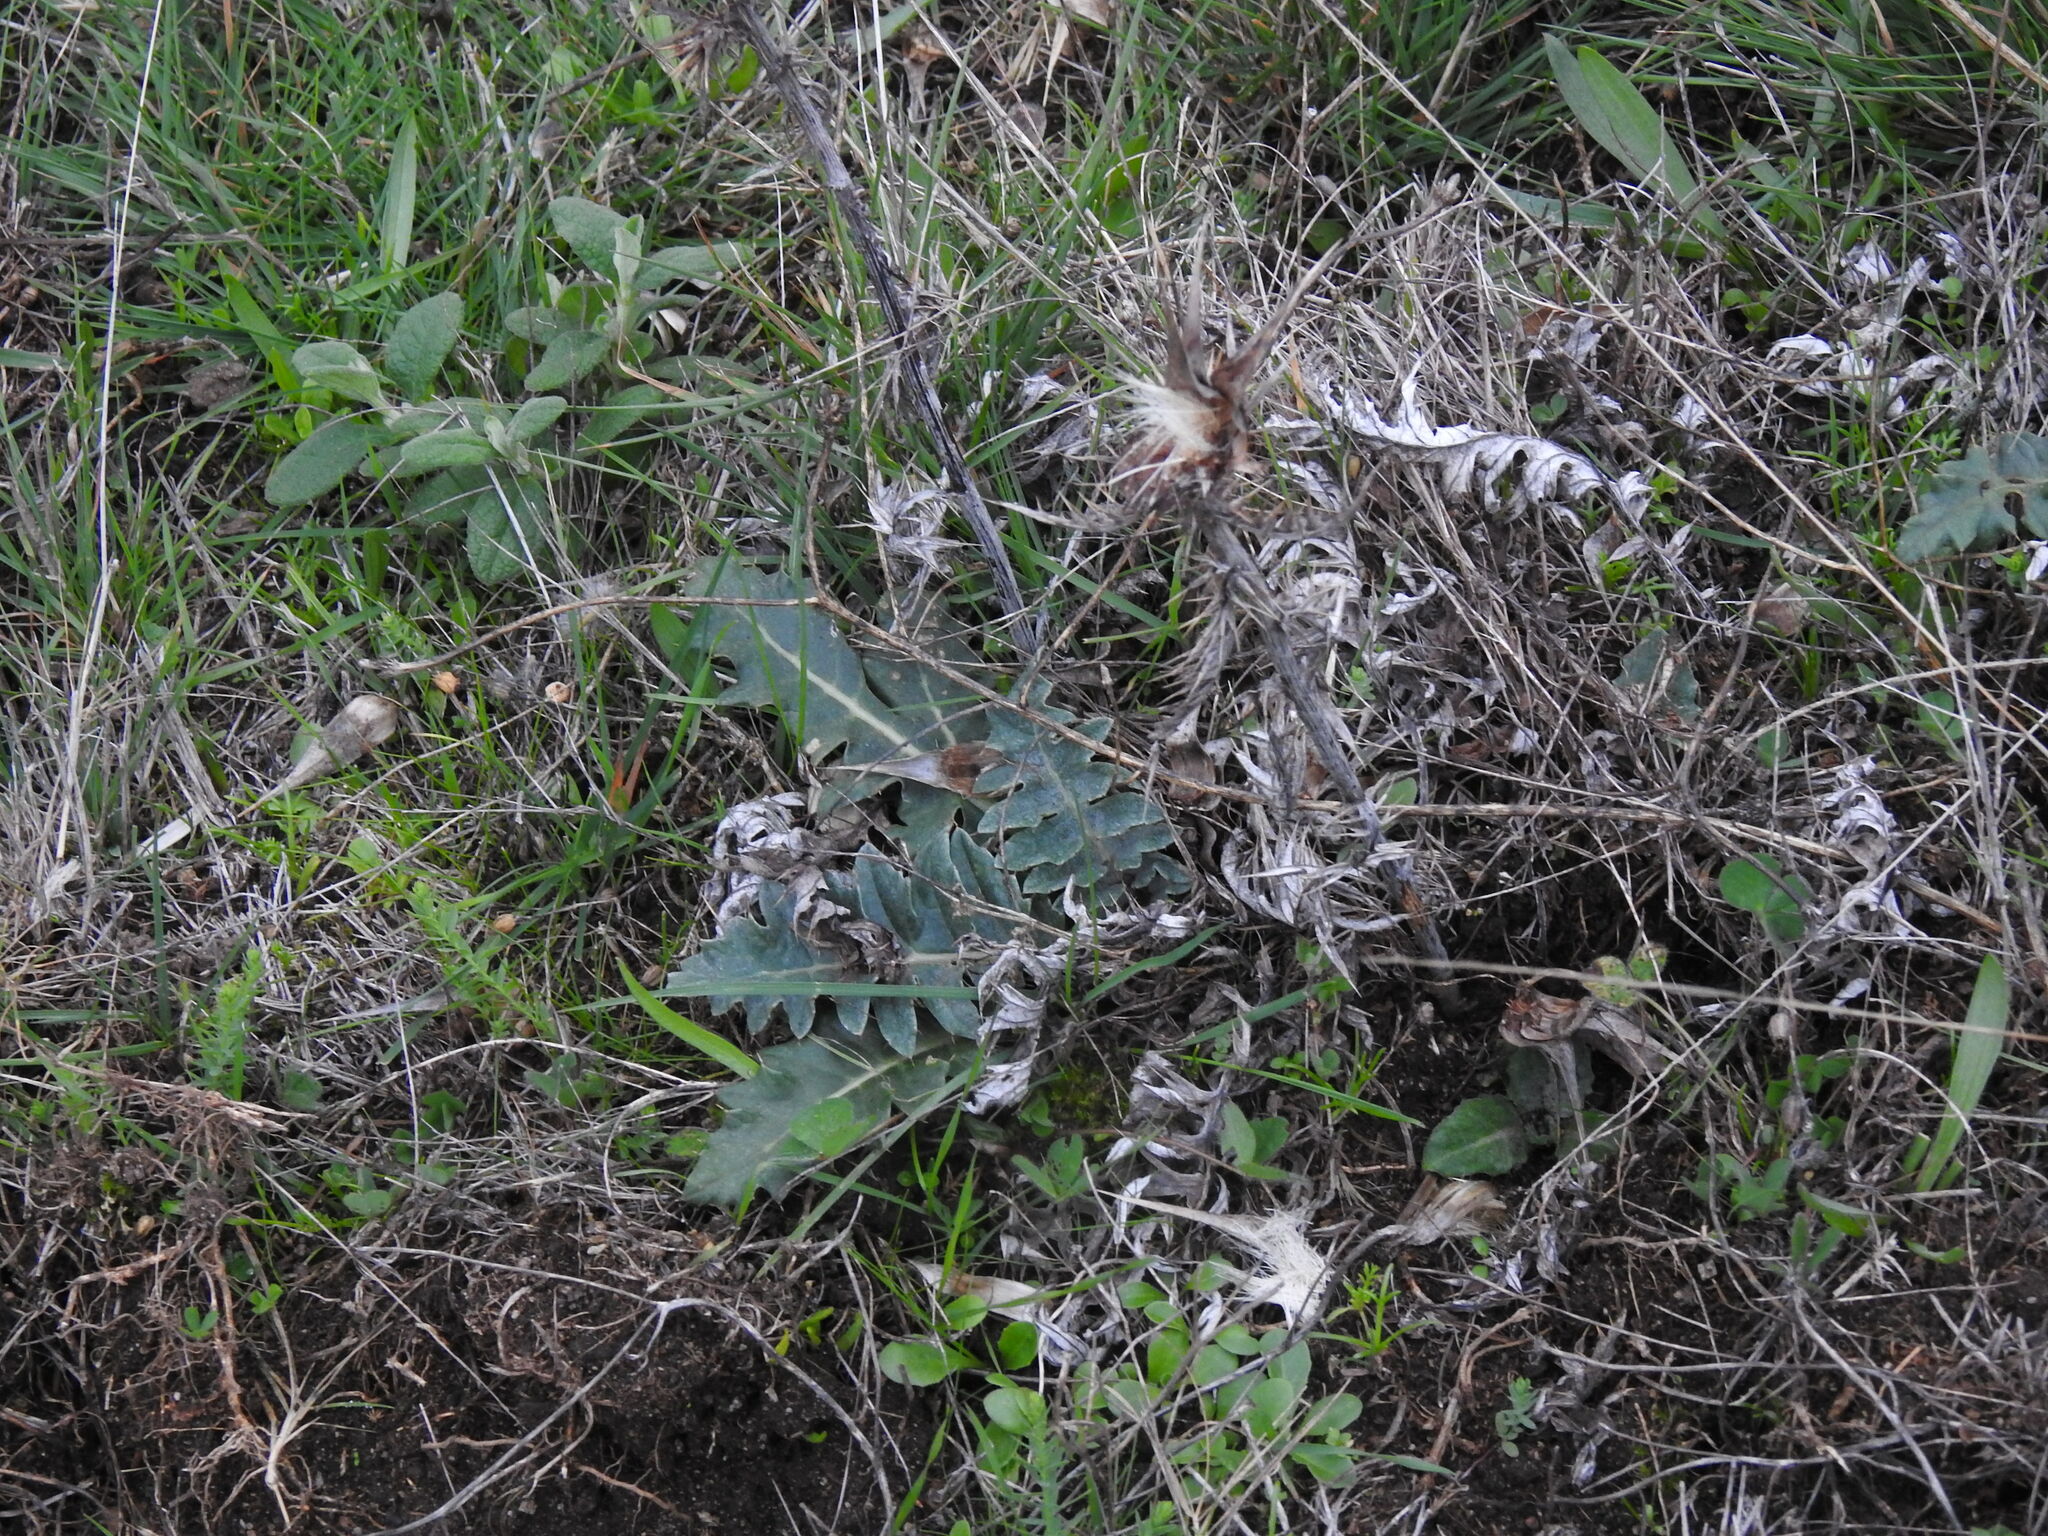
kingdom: Plantae
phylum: Tracheophyta
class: Magnoliopsida
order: Asterales
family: Asteraceae
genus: Cynara
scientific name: Cynara algarbiensis
